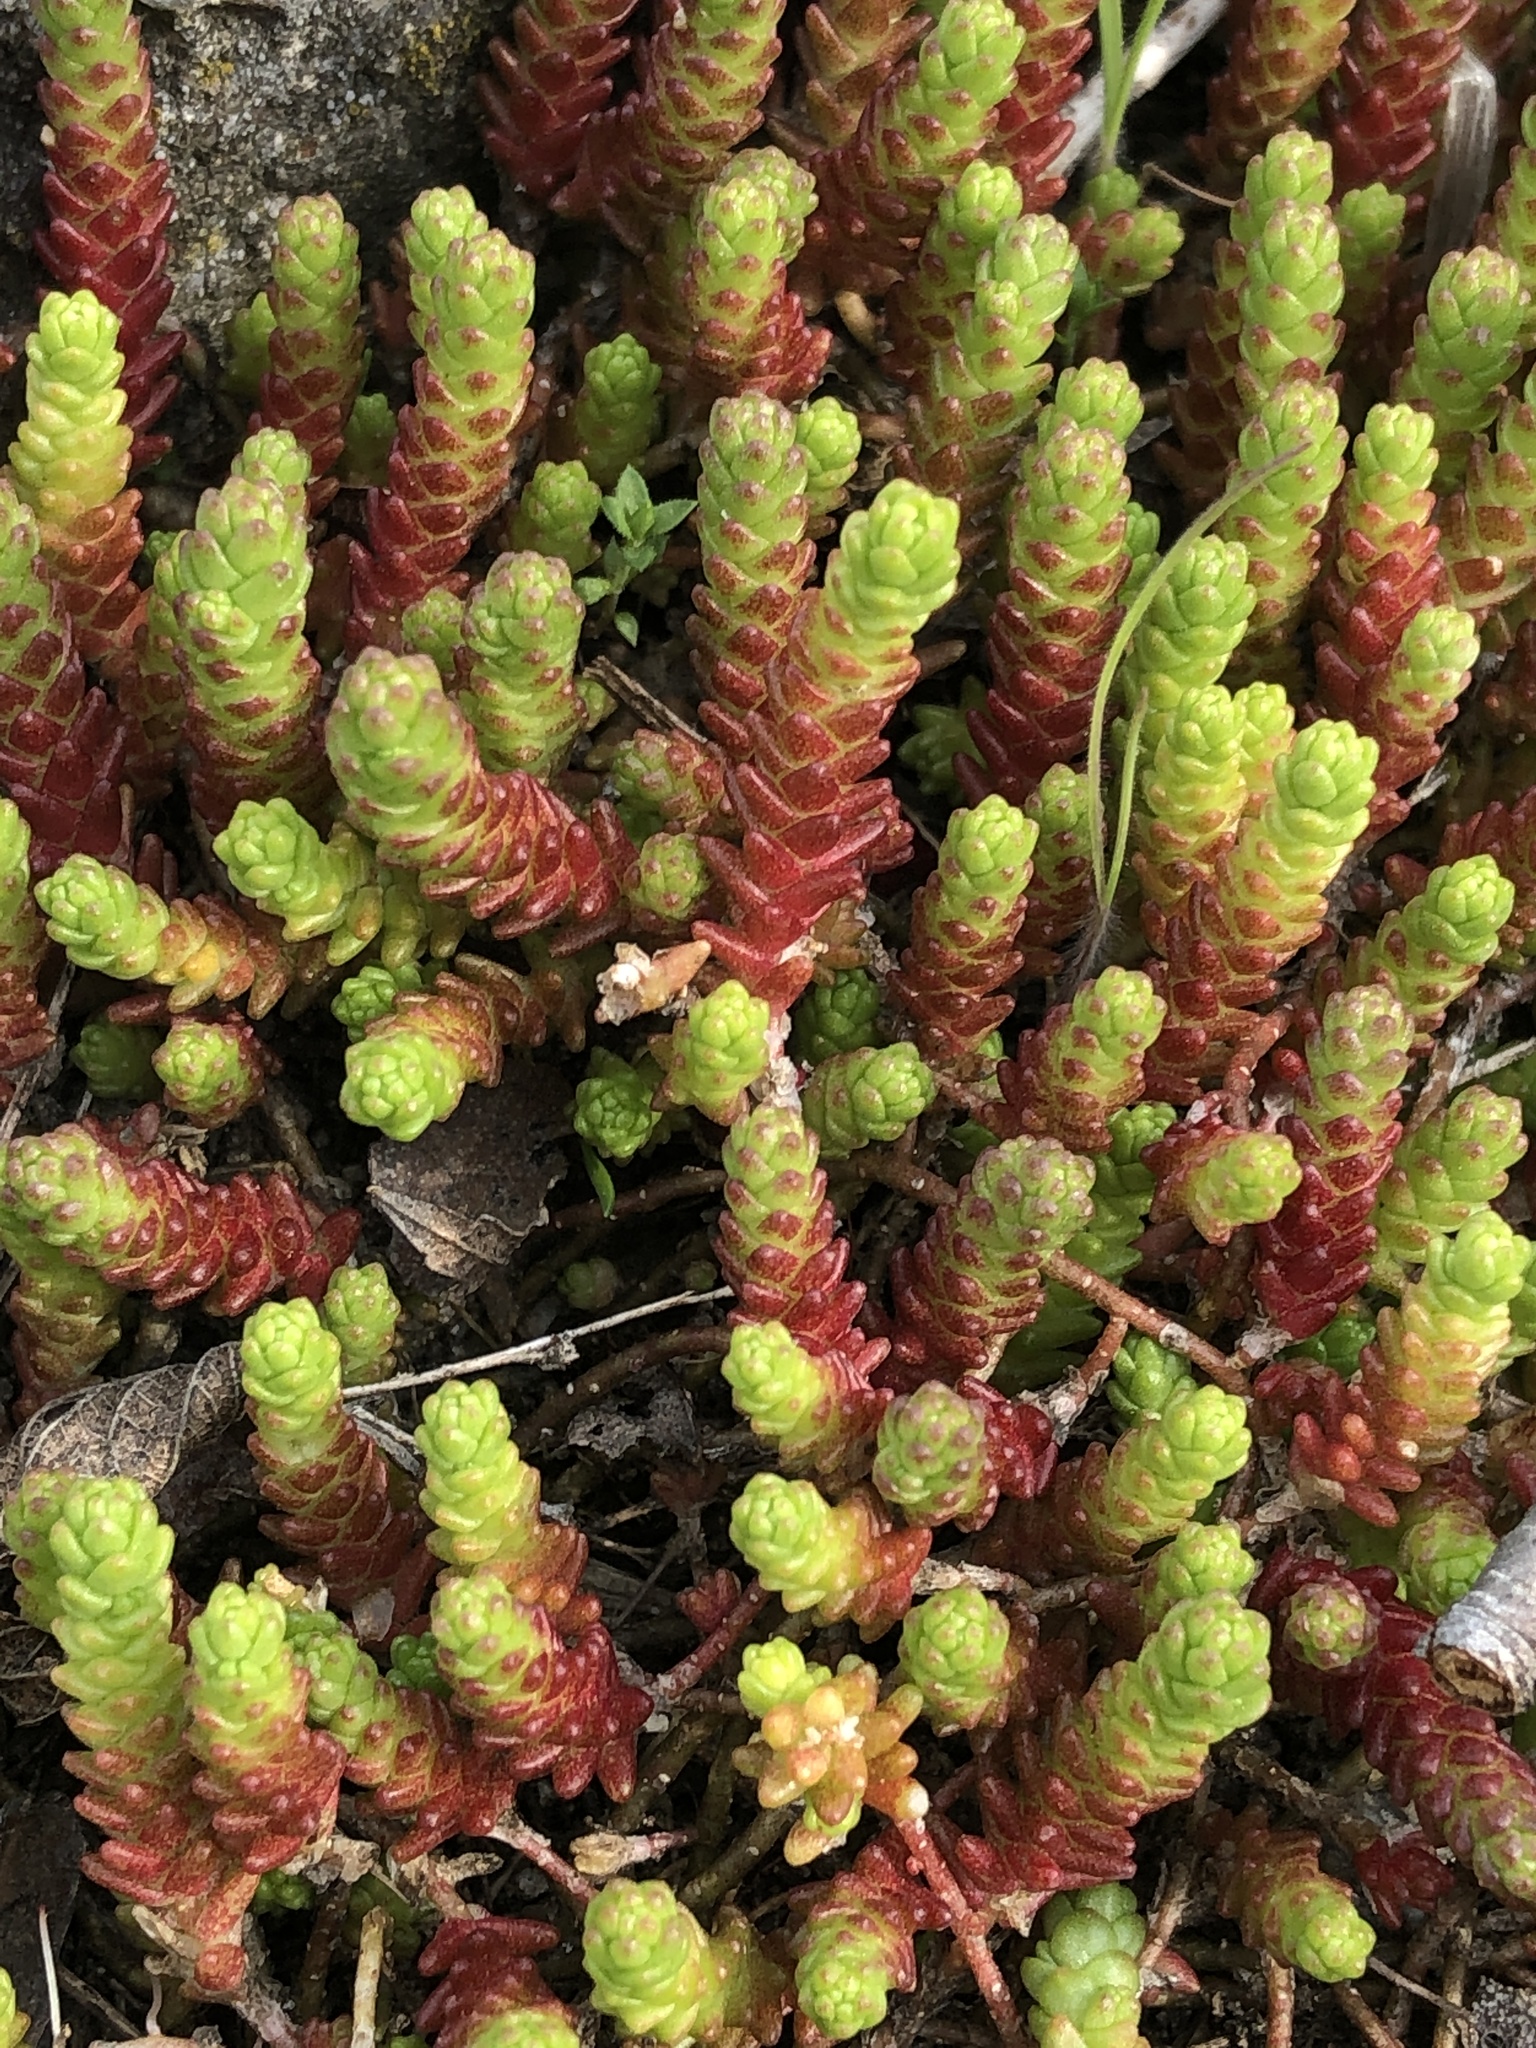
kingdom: Plantae
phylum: Tracheophyta
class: Magnoliopsida
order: Saxifragales
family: Crassulaceae
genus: Sedum
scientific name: Sedum acre
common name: Biting stonecrop
